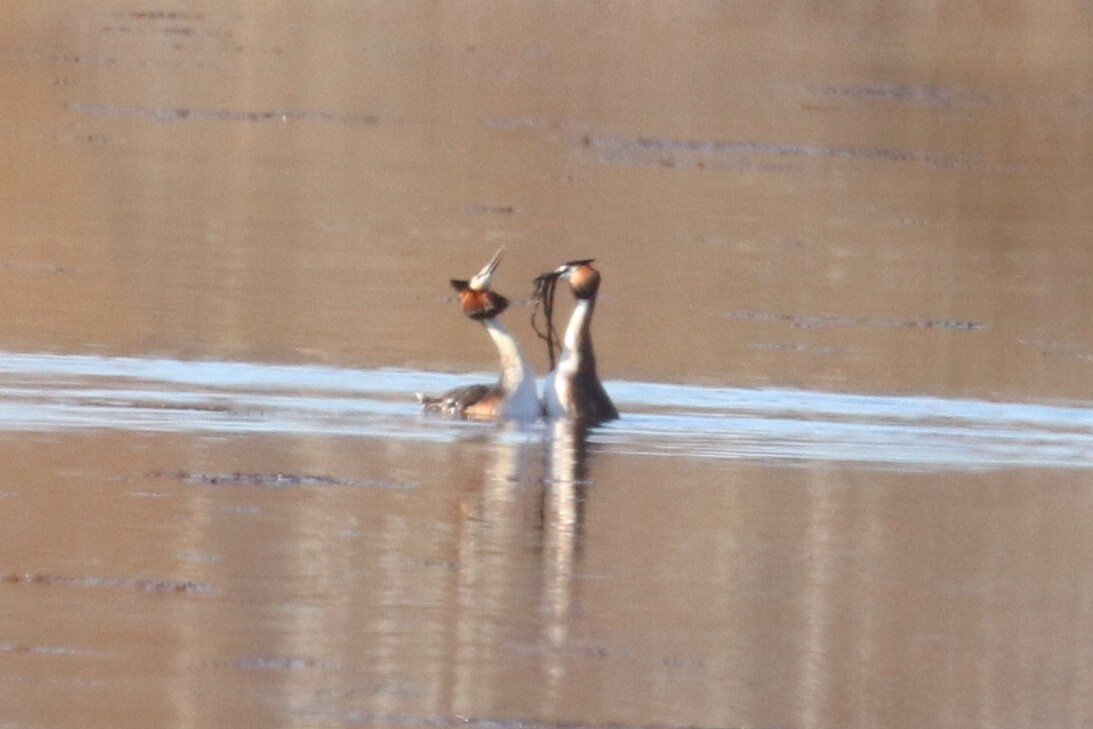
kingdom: Animalia
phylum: Chordata
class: Aves
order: Podicipediformes
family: Podicipedidae
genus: Podiceps
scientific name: Podiceps cristatus
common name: Great crested grebe
